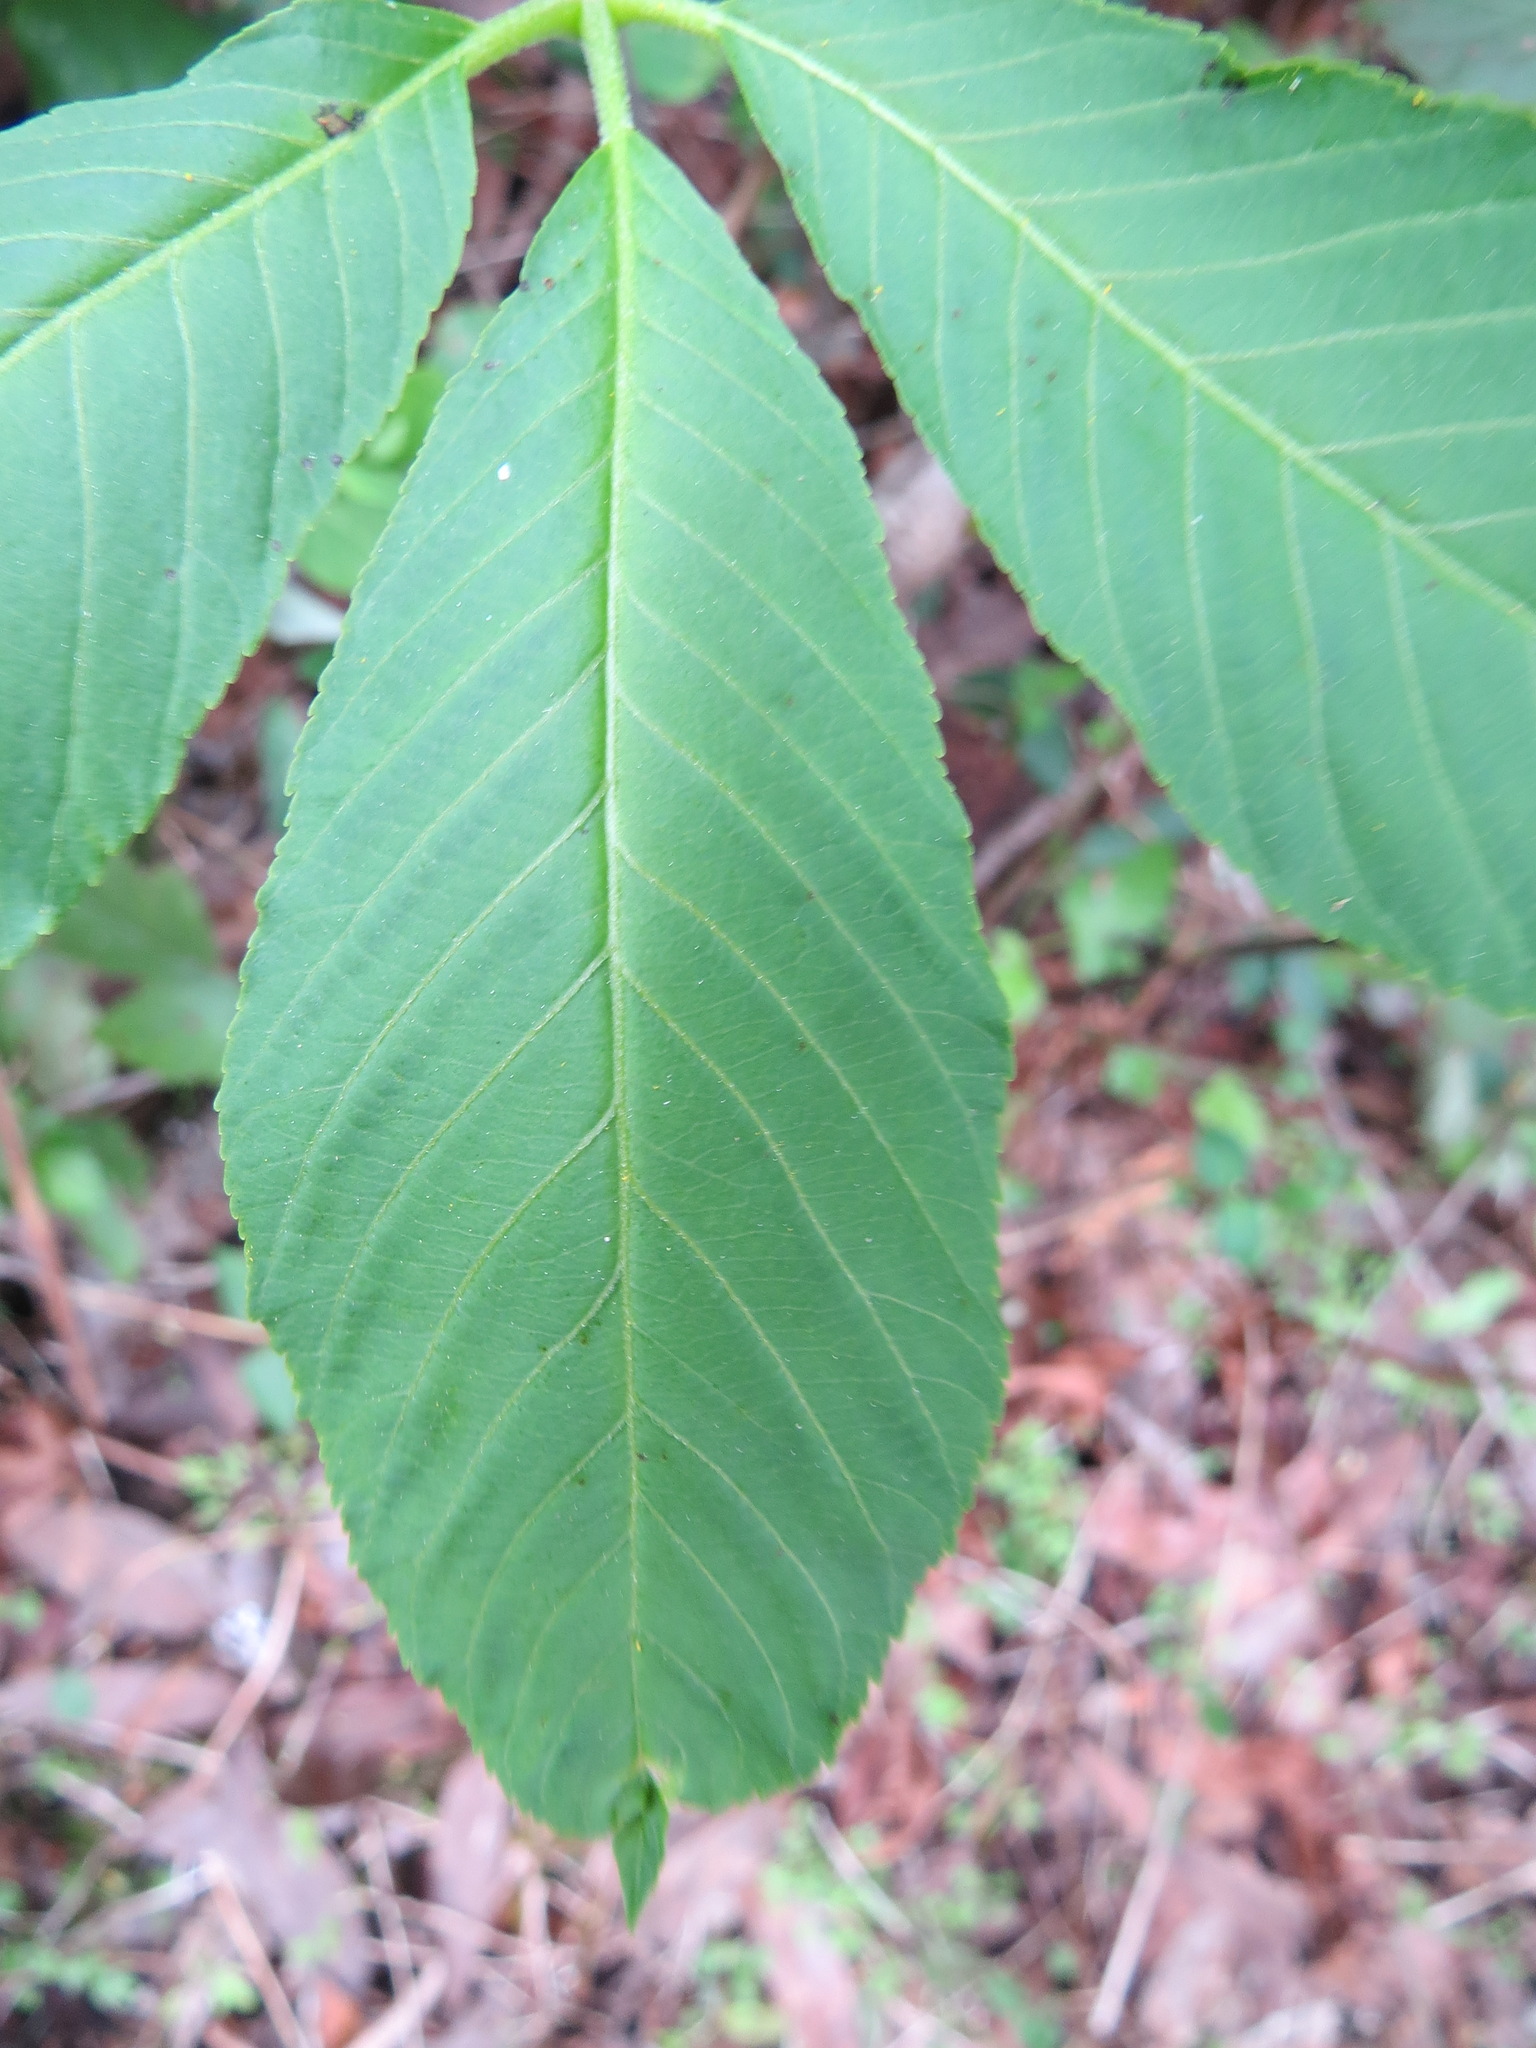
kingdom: Plantae
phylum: Tracheophyta
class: Magnoliopsida
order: Sapindales
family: Sapindaceae
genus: Aesculus
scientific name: Aesculus californica
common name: California buckeye
